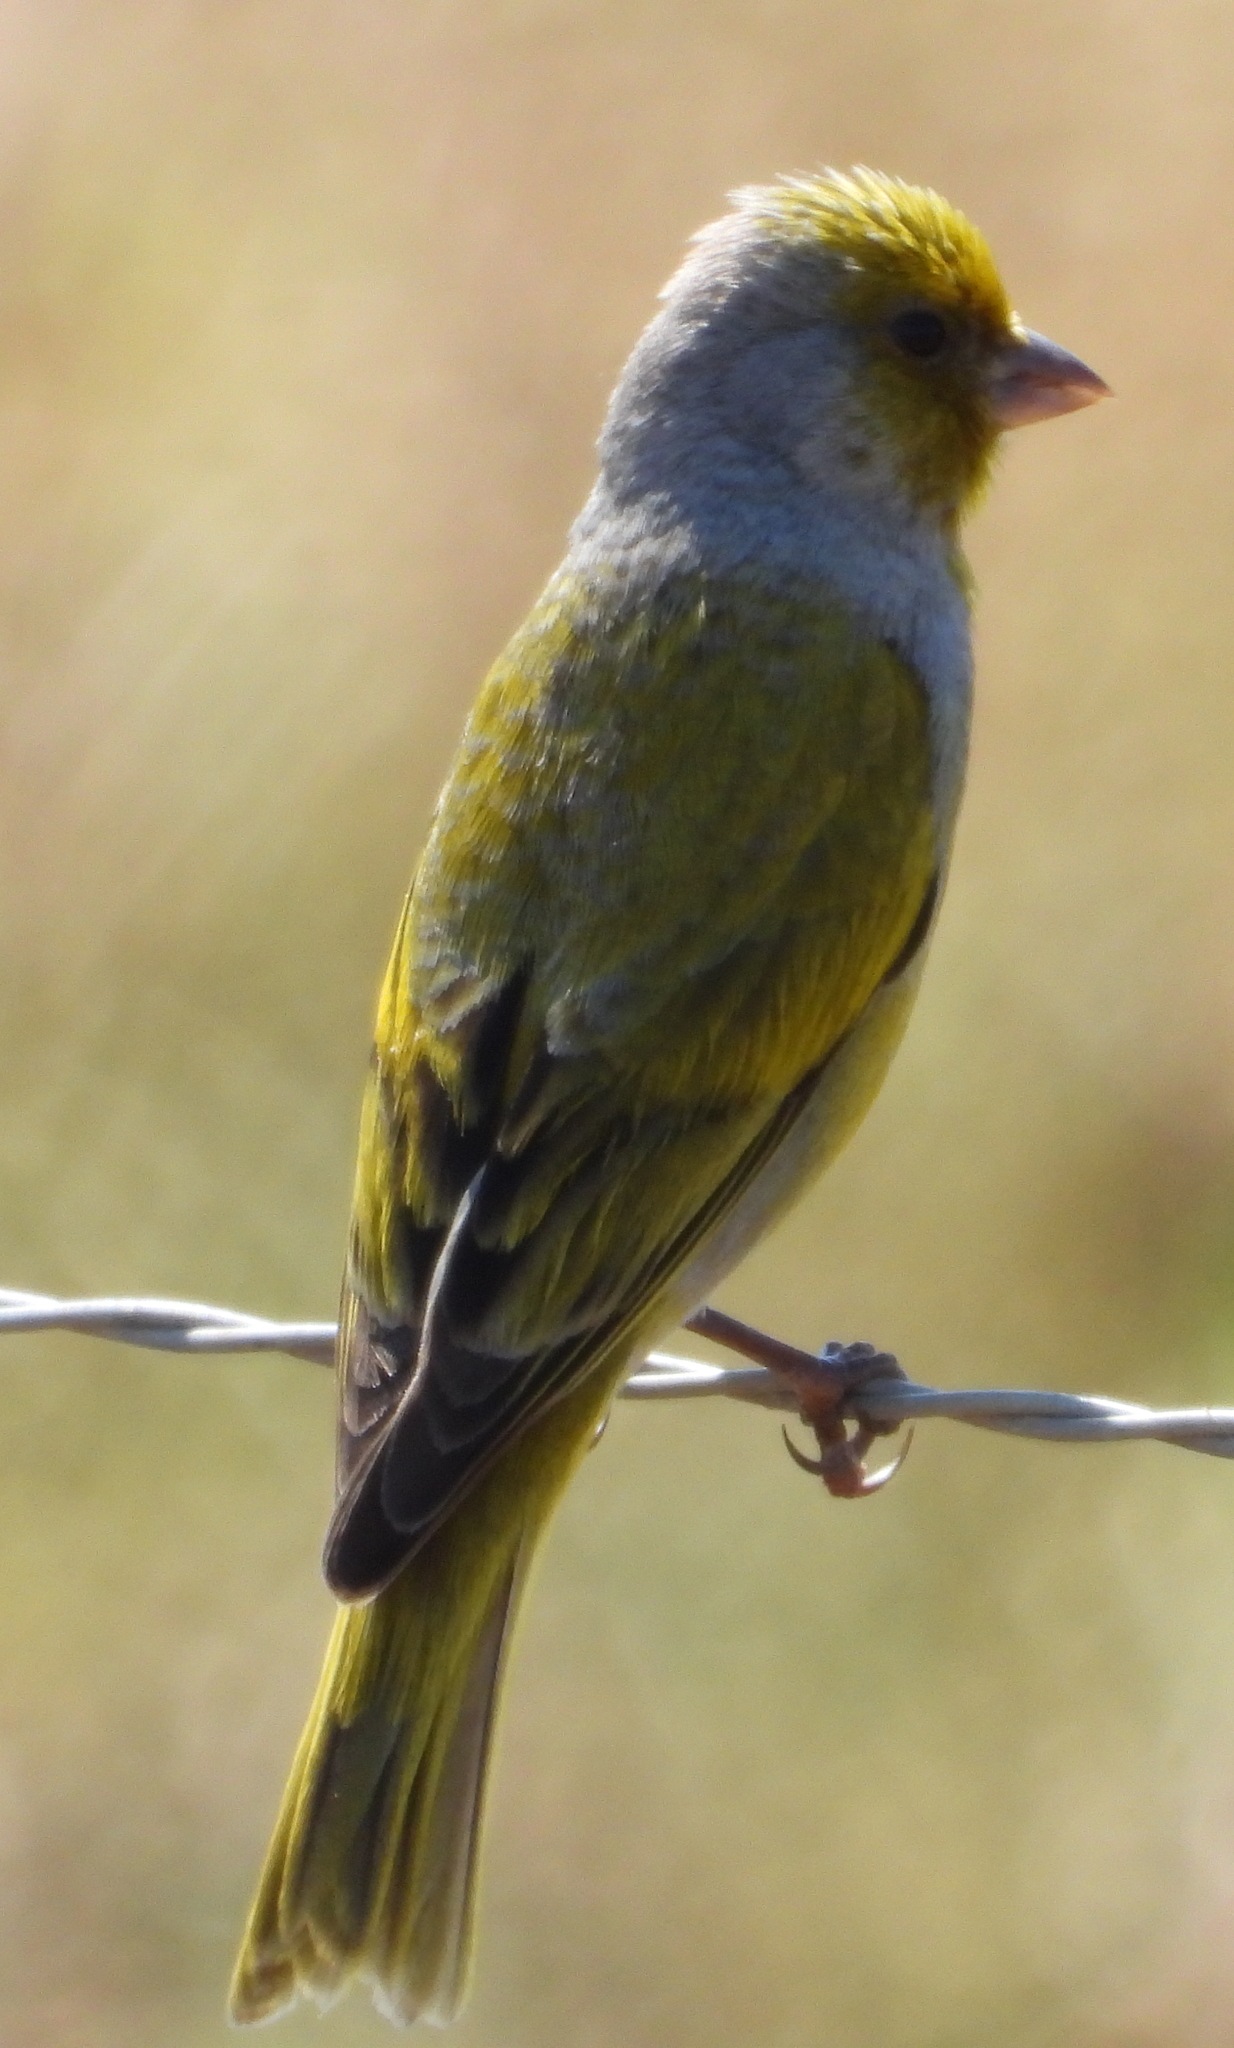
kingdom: Animalia
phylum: Chordata
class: Aves
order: Passeriformes
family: Fringillidae
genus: Serinus
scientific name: Serinus canicollis
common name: Cape canary
